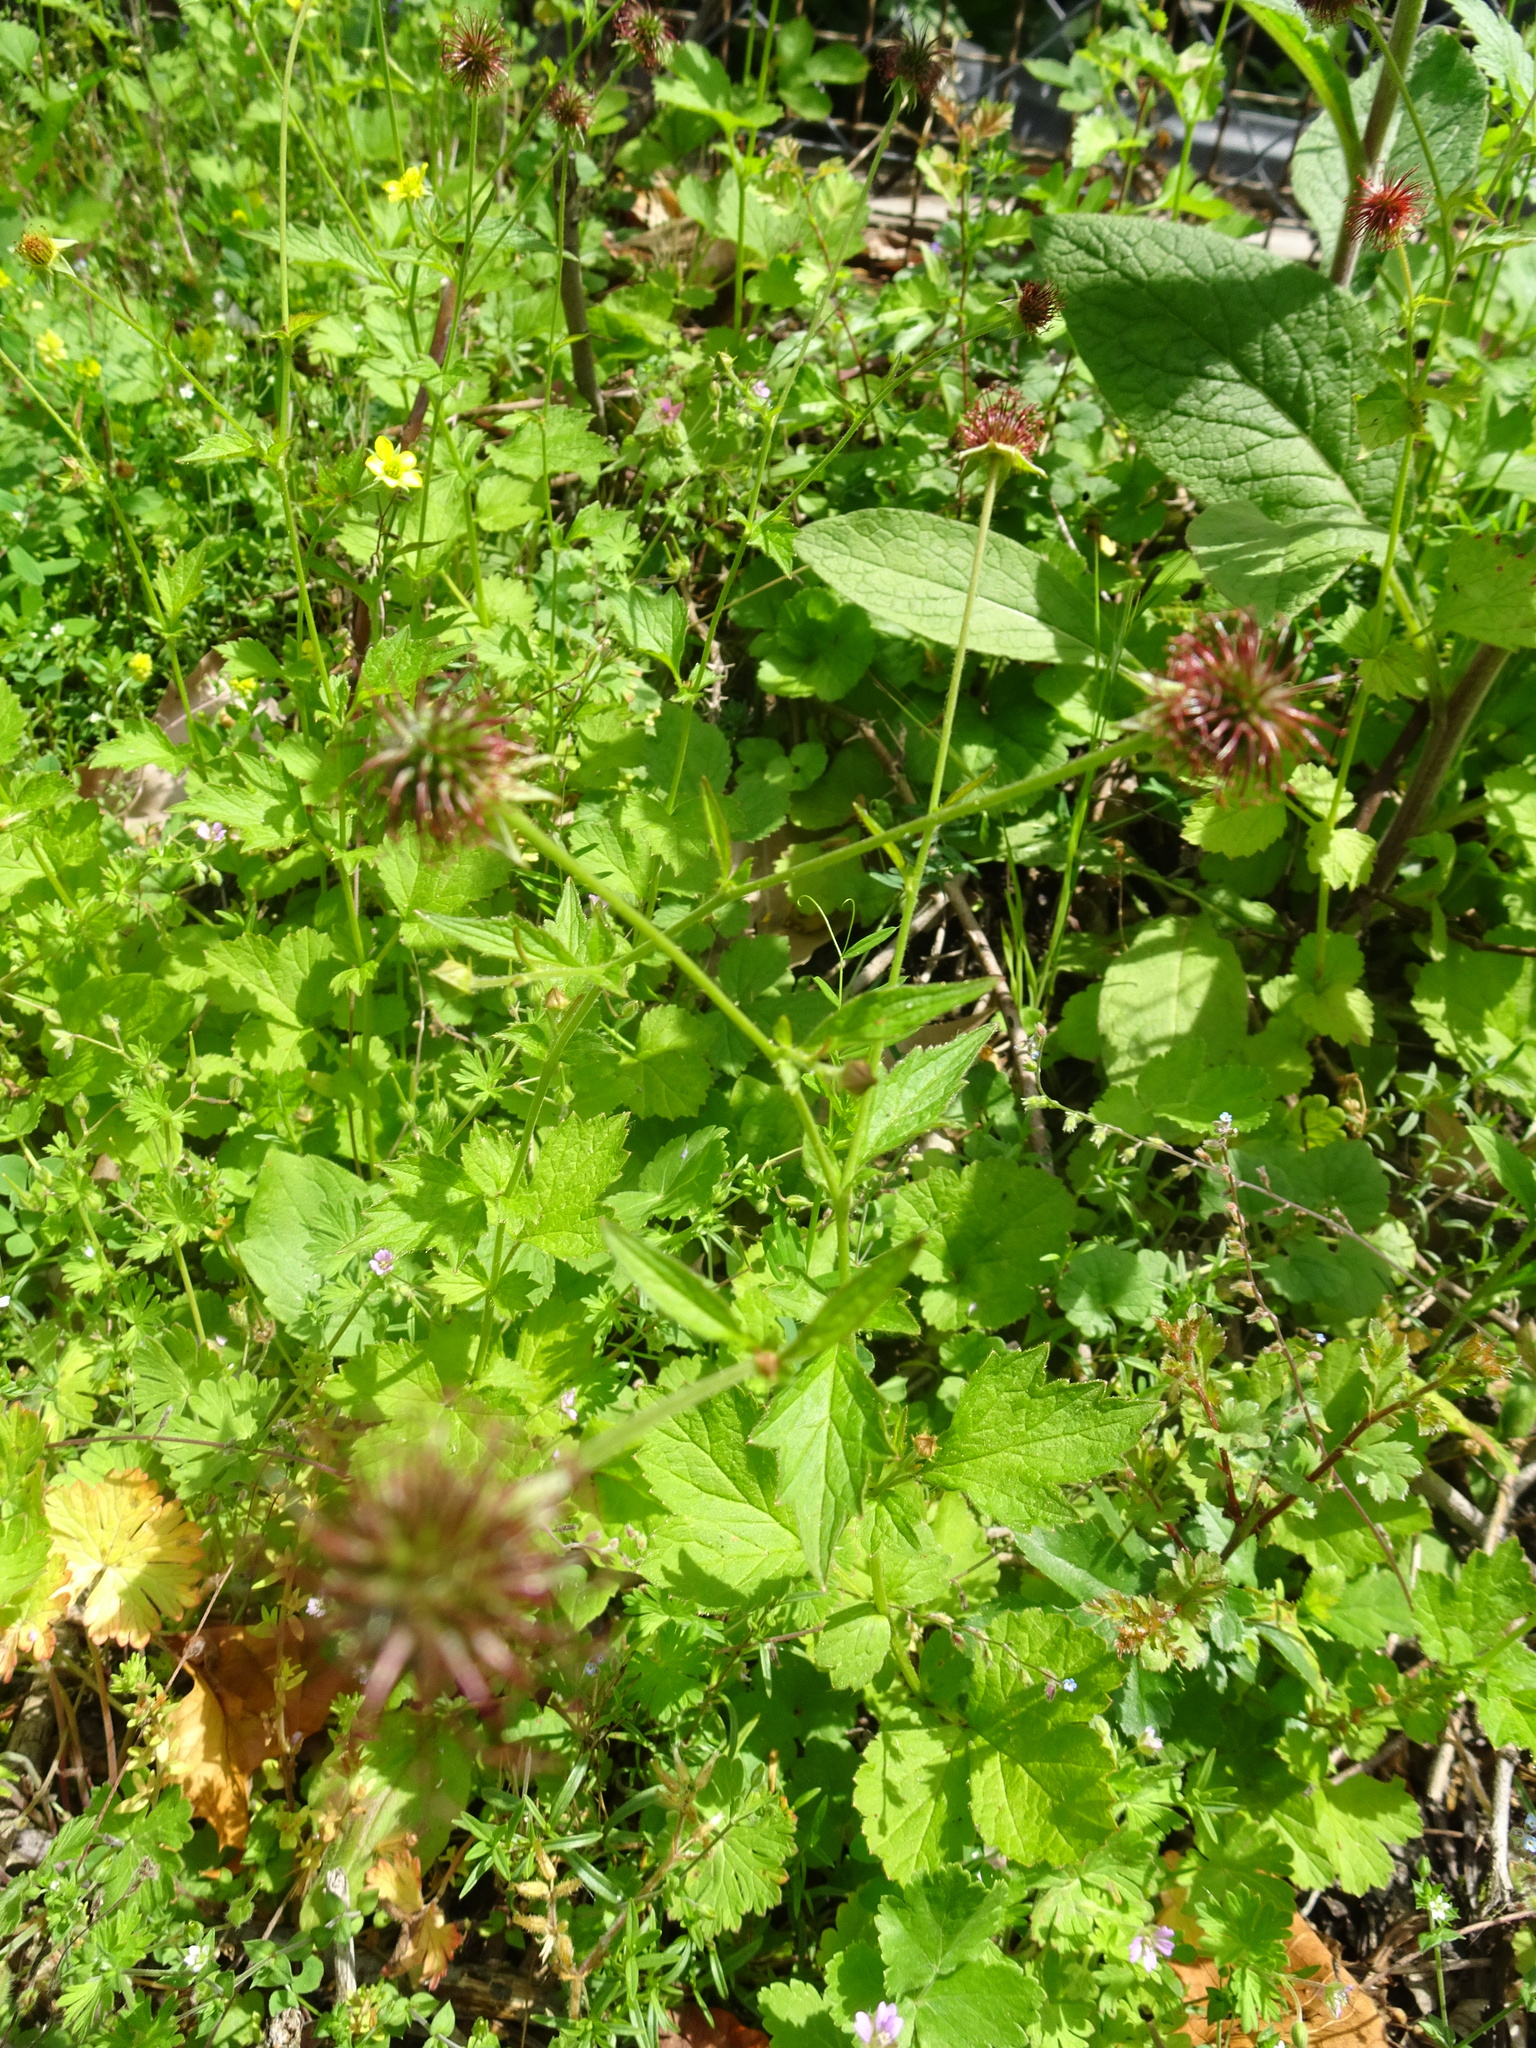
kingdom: Plantae
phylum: Tracheophyta
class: Magnoliopsida
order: Rosales
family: Rosaceae
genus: Geum
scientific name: Geum urbanum
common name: Wood avens
